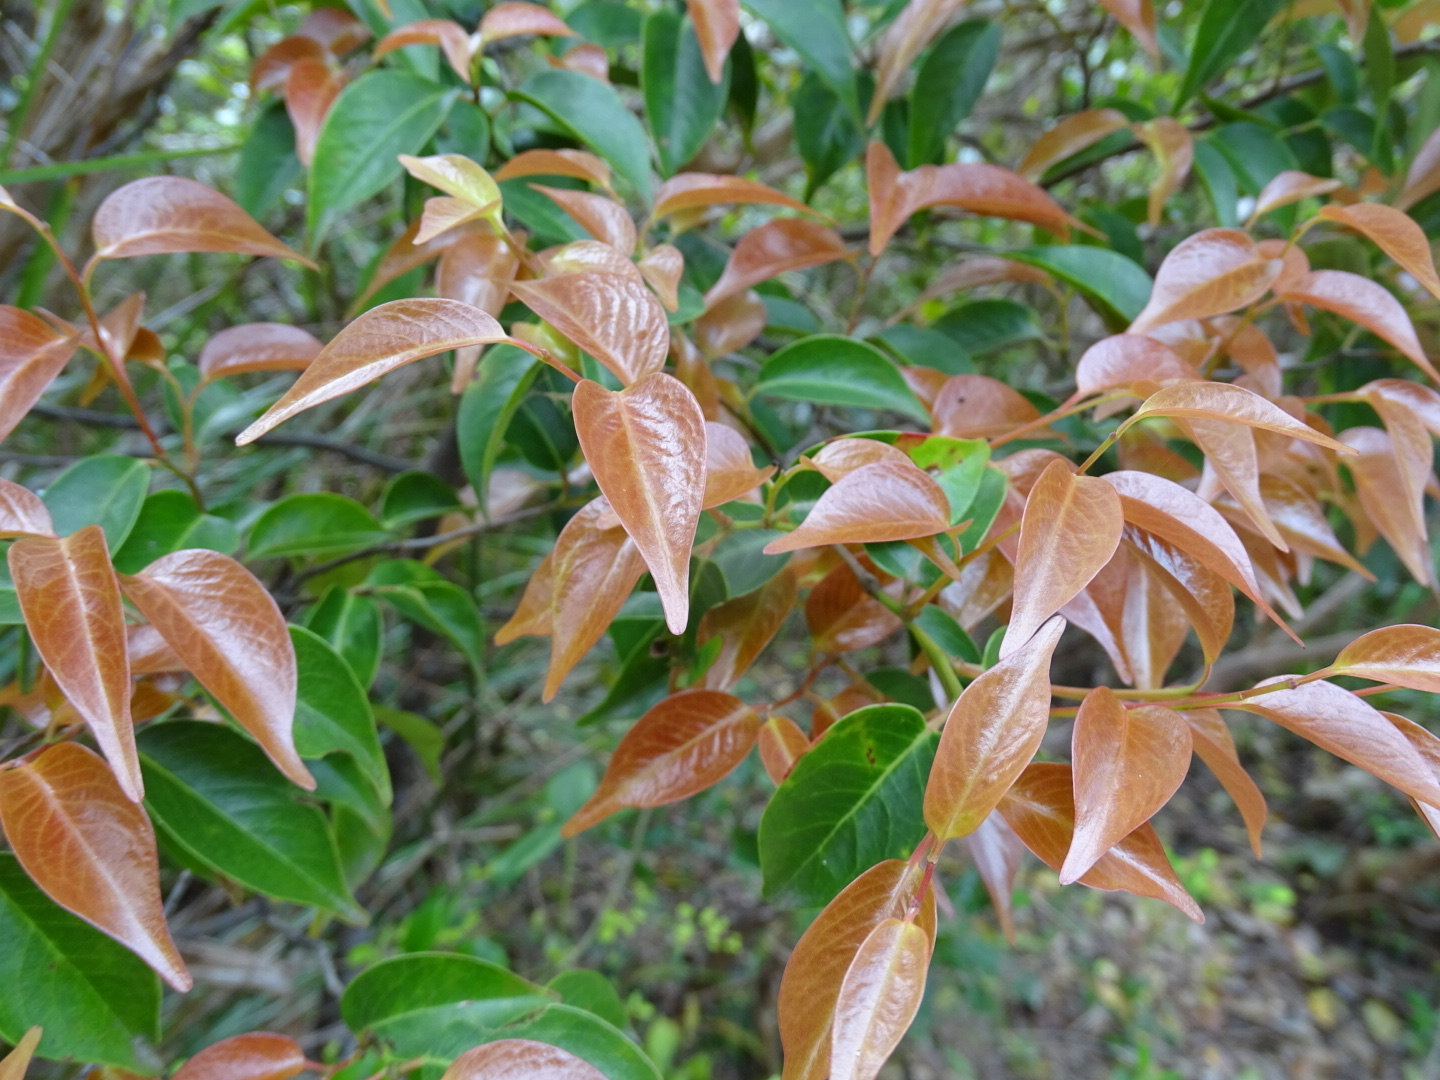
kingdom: Plantae
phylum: Tracheophyta
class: Magnoliopsida
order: Ericales
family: Pentaphylacaceae
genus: Pentaphylax
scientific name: Pentaphylax euryoides
